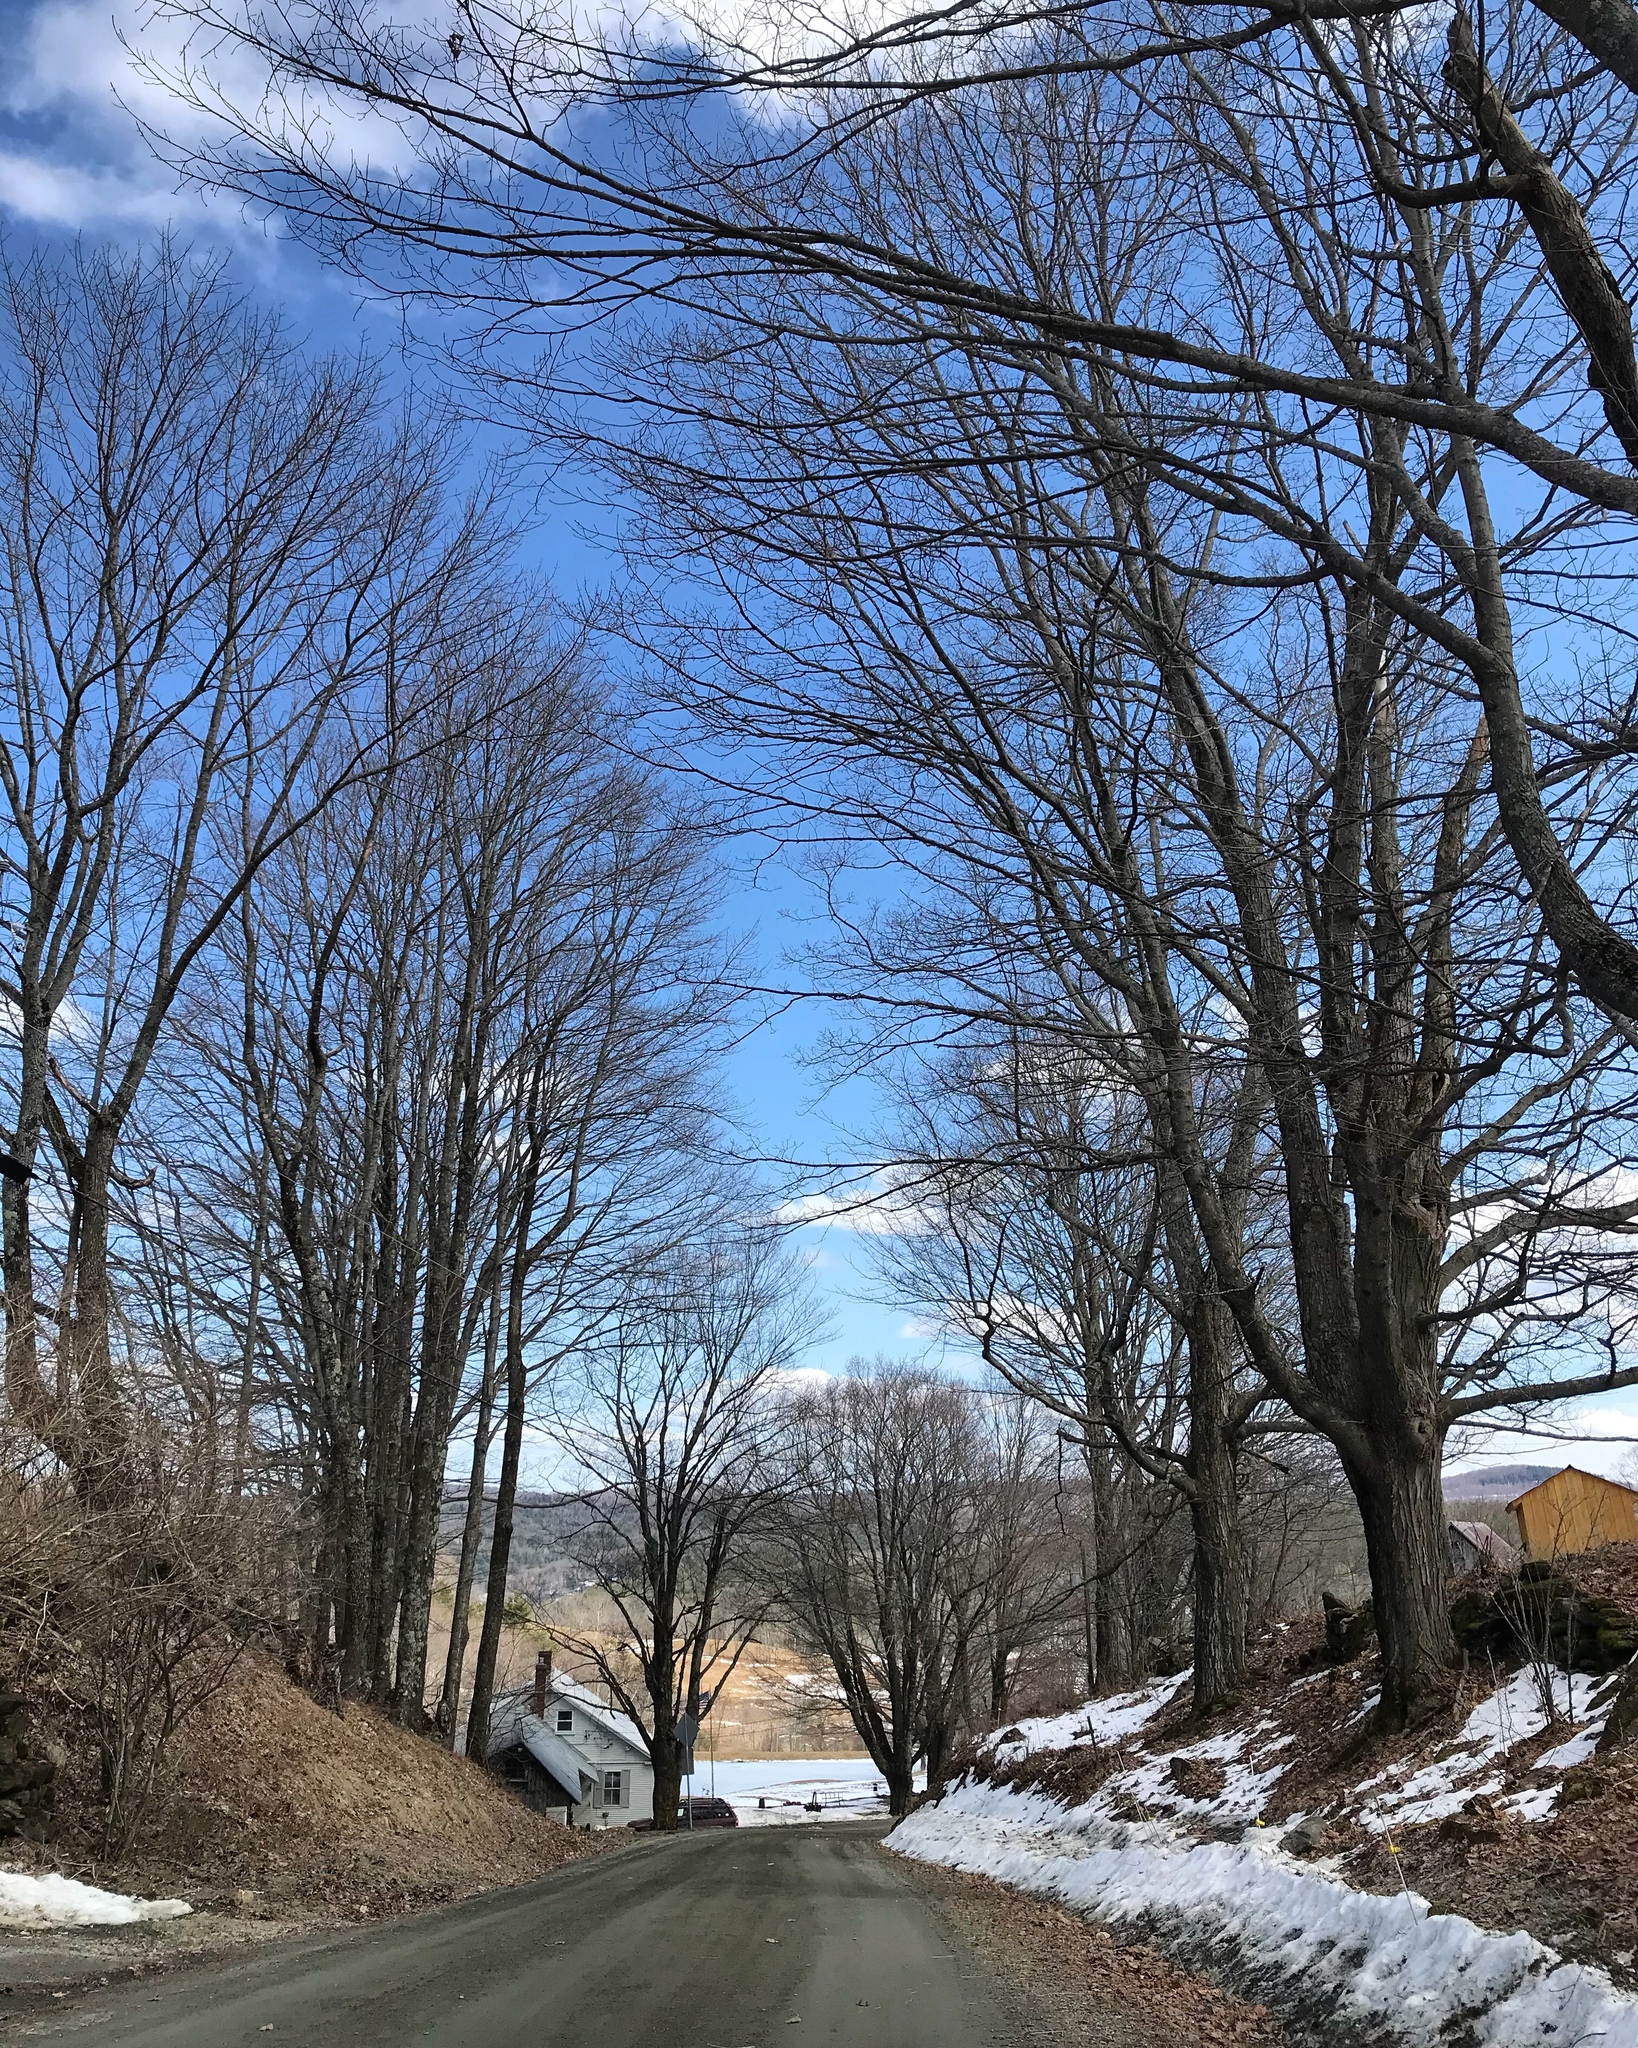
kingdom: Plantae
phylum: Tracheophyta
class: Magnoliopsida
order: Sapindales
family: Sapindaceae
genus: Acer
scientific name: Acer saccharum
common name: Sugar maple
